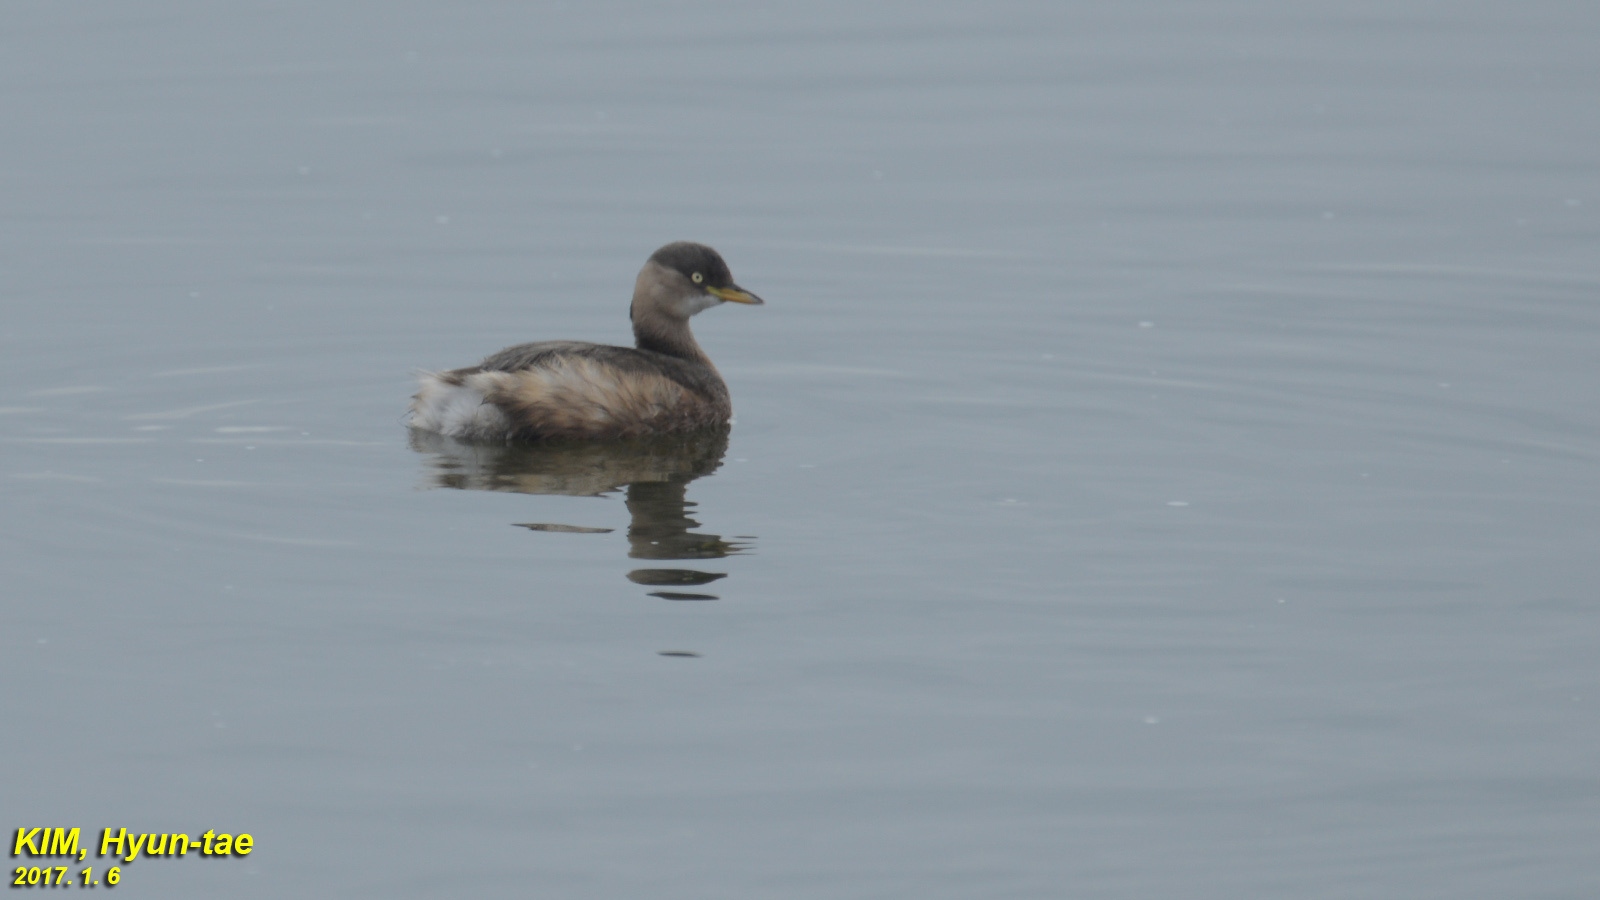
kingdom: Animalia
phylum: Chordata
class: Aves
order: Podicipediformes
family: Podicipedidae
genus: Tachybaptus
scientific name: Tachybaptus ruficollis
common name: Little grebe
